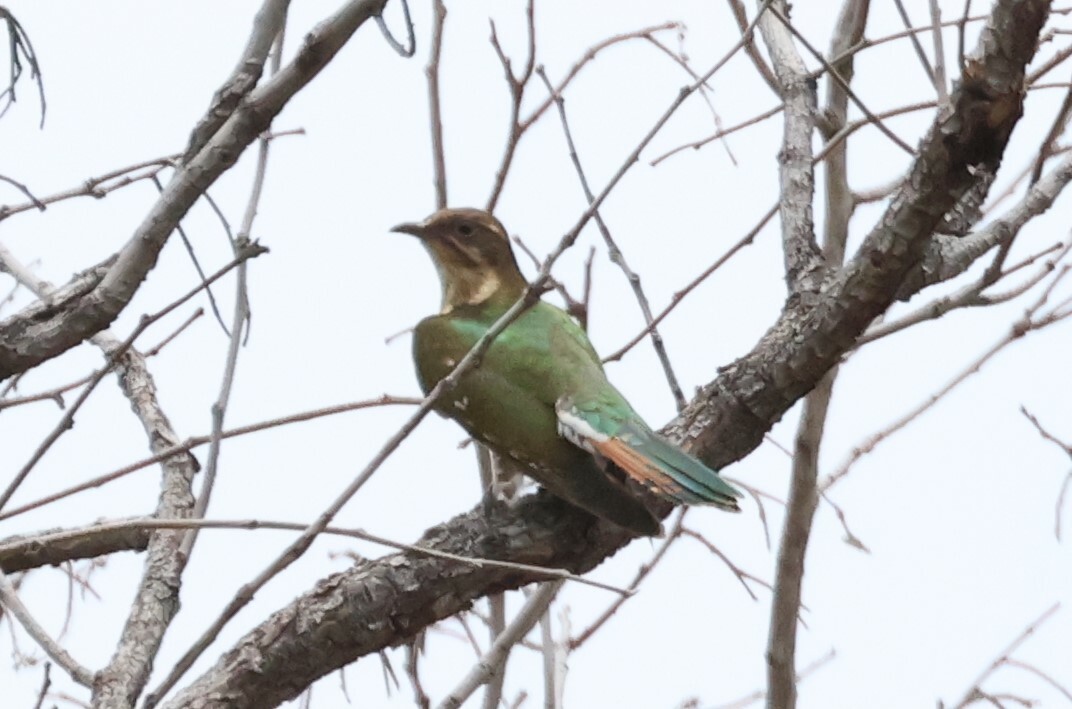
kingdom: Animalia
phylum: Chordata
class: Aves
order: Cuculiformes
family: Cuculidae
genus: Chrysococcyx
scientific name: Chrysococcyx caprius
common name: Diederik cuckoo
